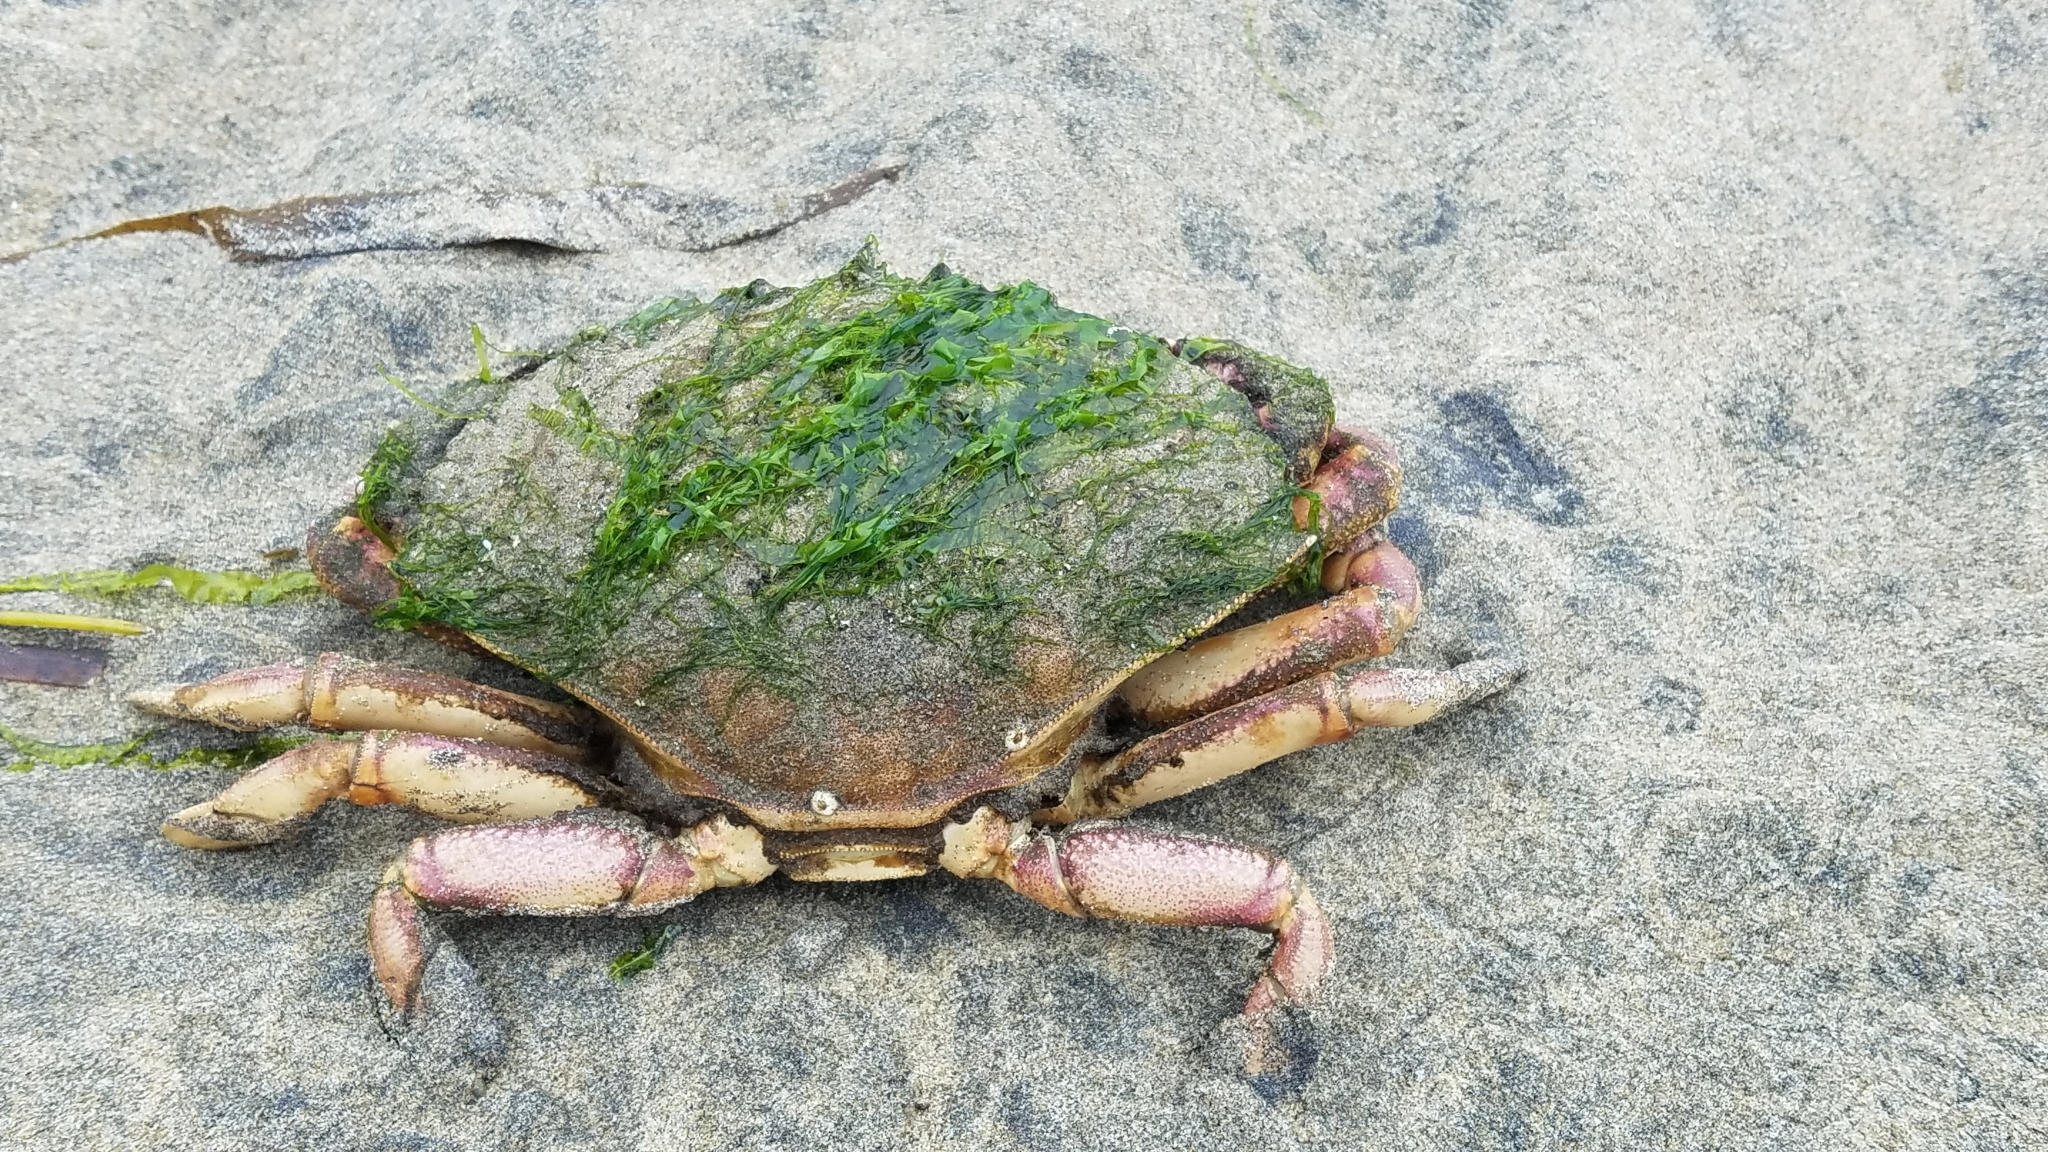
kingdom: Animalia
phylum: Arthropoda
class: Malacostraca
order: Decapoda
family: Cancridae
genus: Metacarcinus
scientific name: Metacarcinus magister
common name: Californian crab
